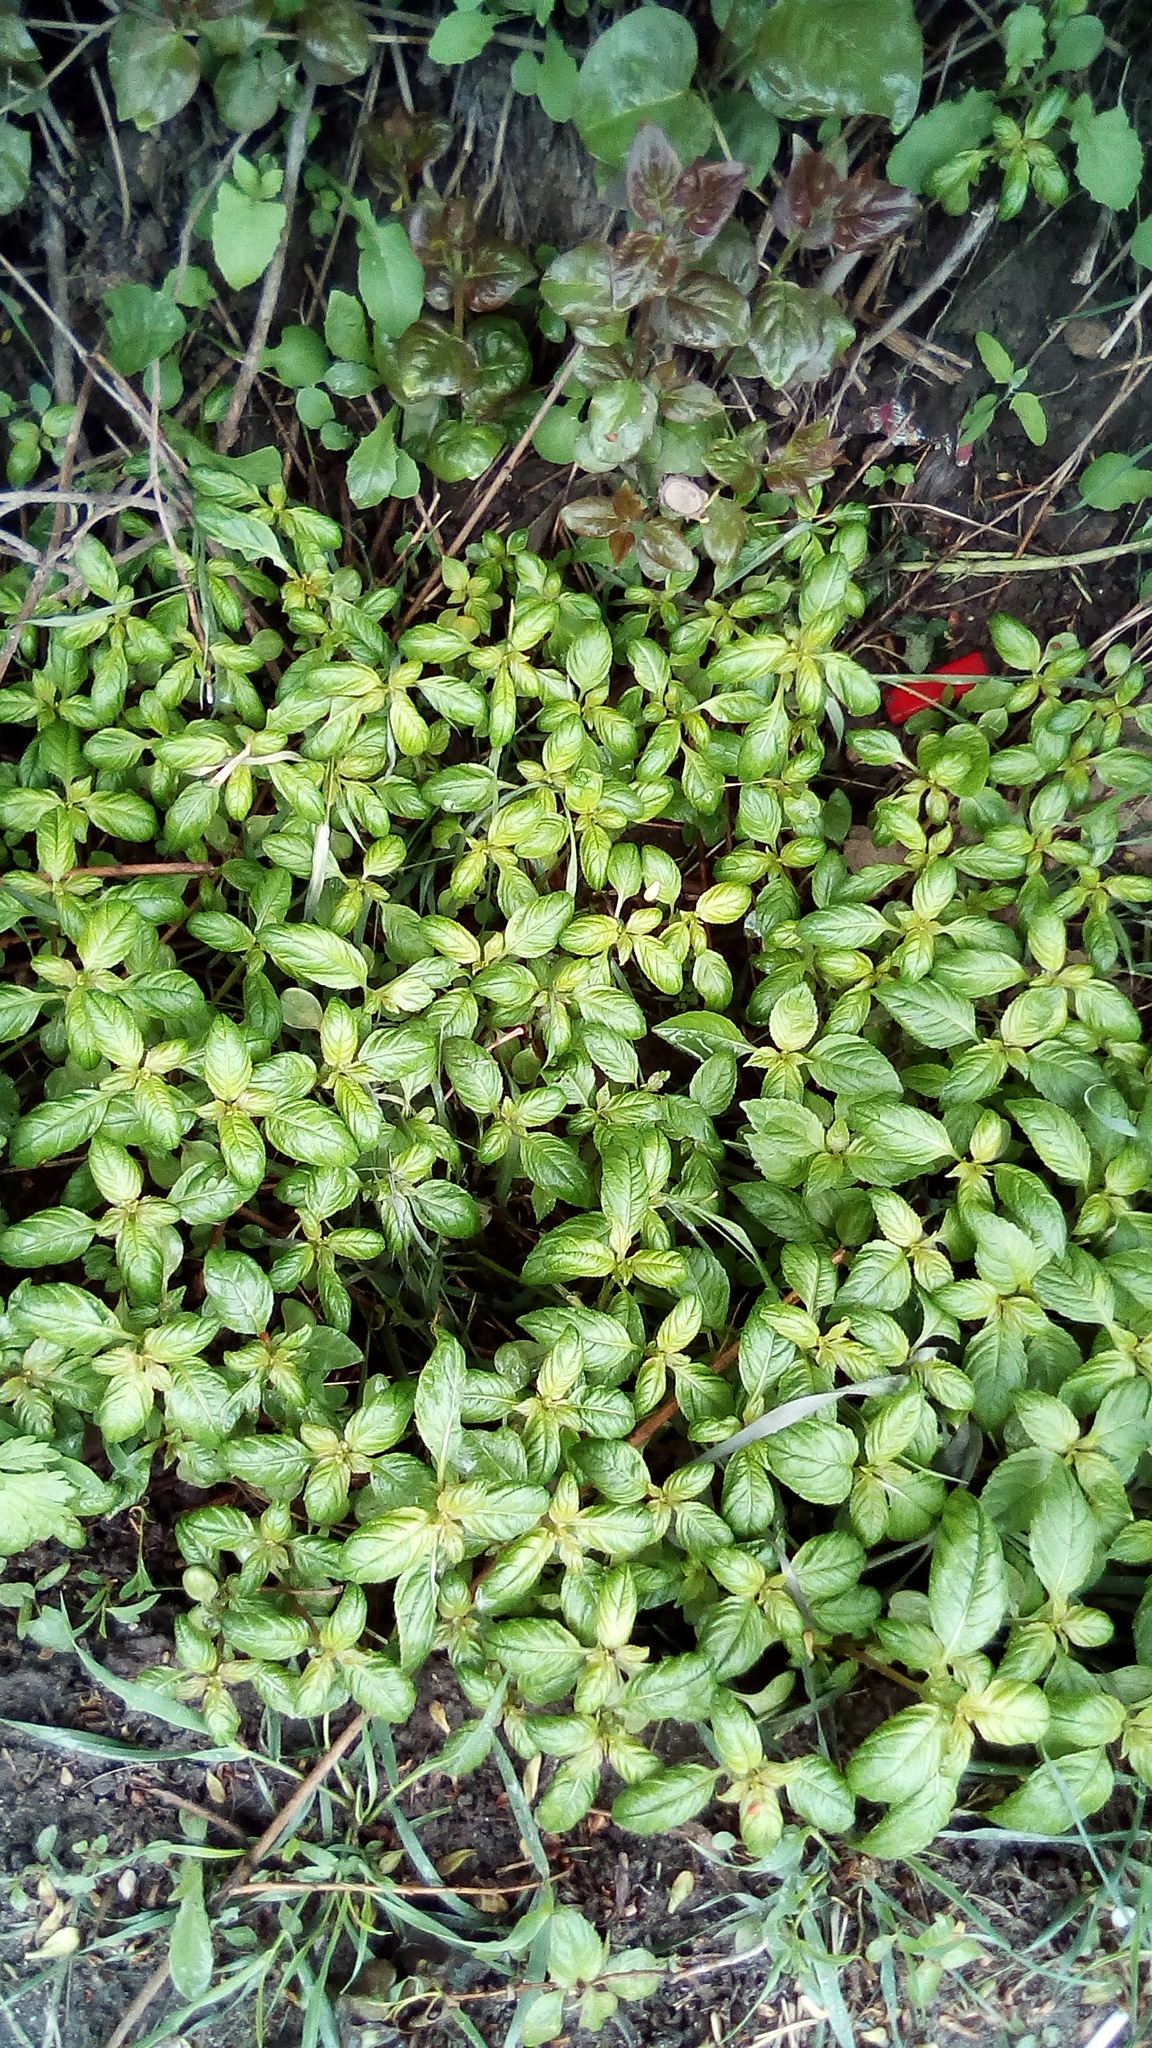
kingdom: Plantae
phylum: Tracheophyta
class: Magnoliopsida
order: Ericales
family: Balsaminaceae
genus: Impatiens
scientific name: Impatiens parviflora
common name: Small balsam
